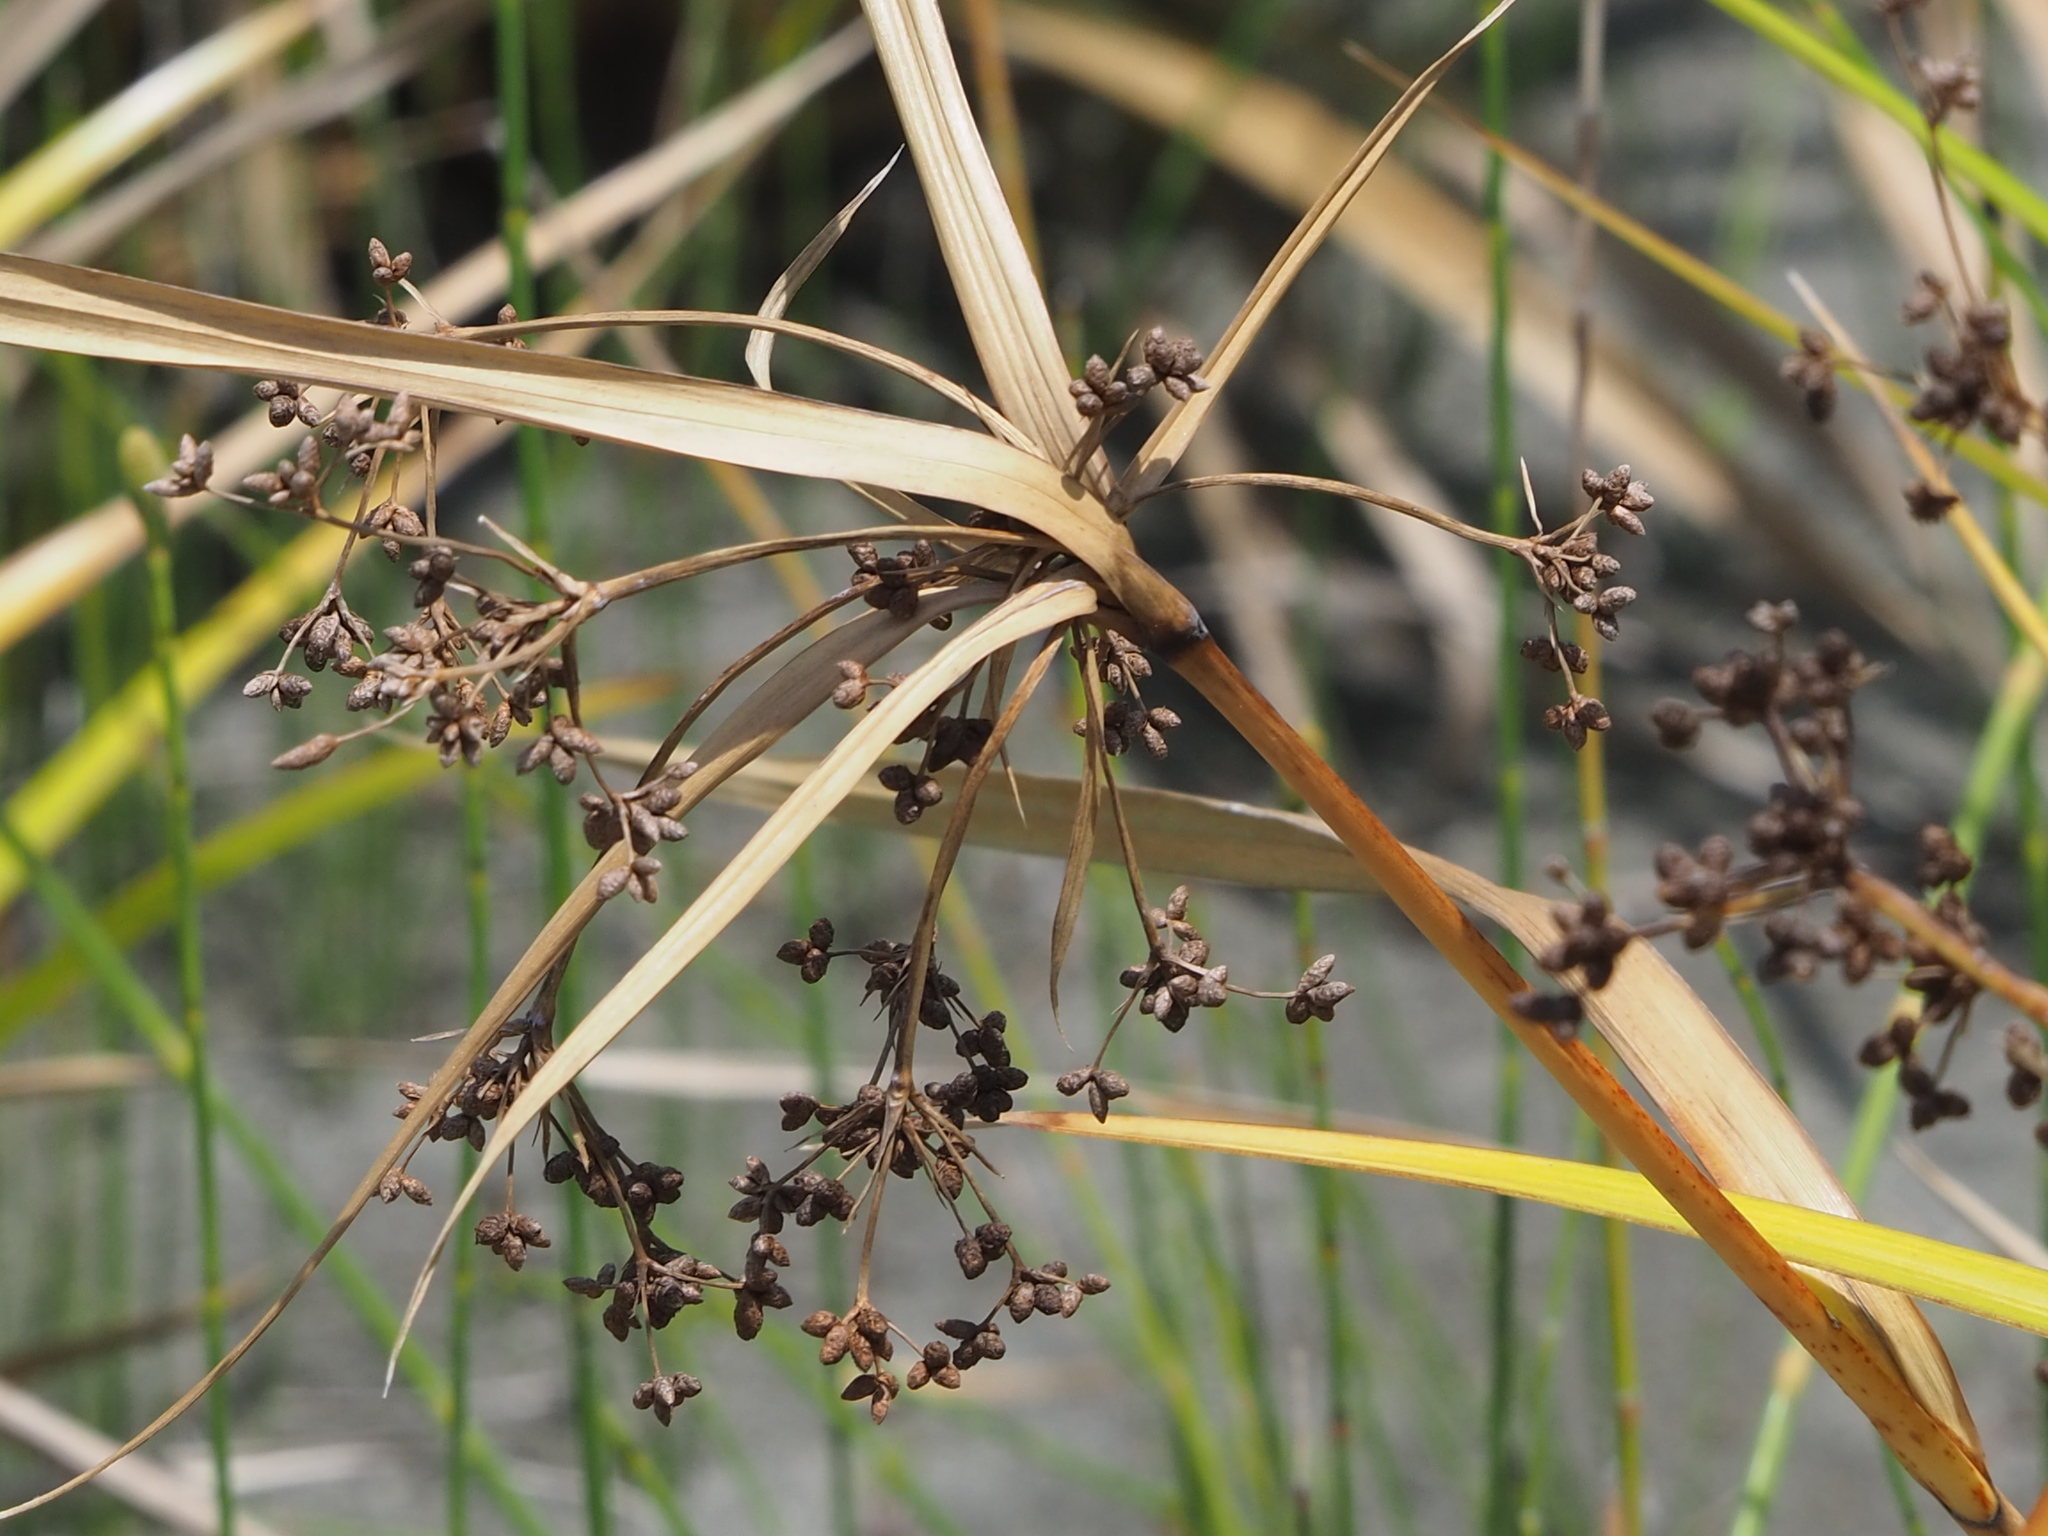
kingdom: Plantae
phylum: Tracheophyta
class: Liliopsida
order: Poales
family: Cyperaceae
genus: Scirpus
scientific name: Scirpus ternatanus
